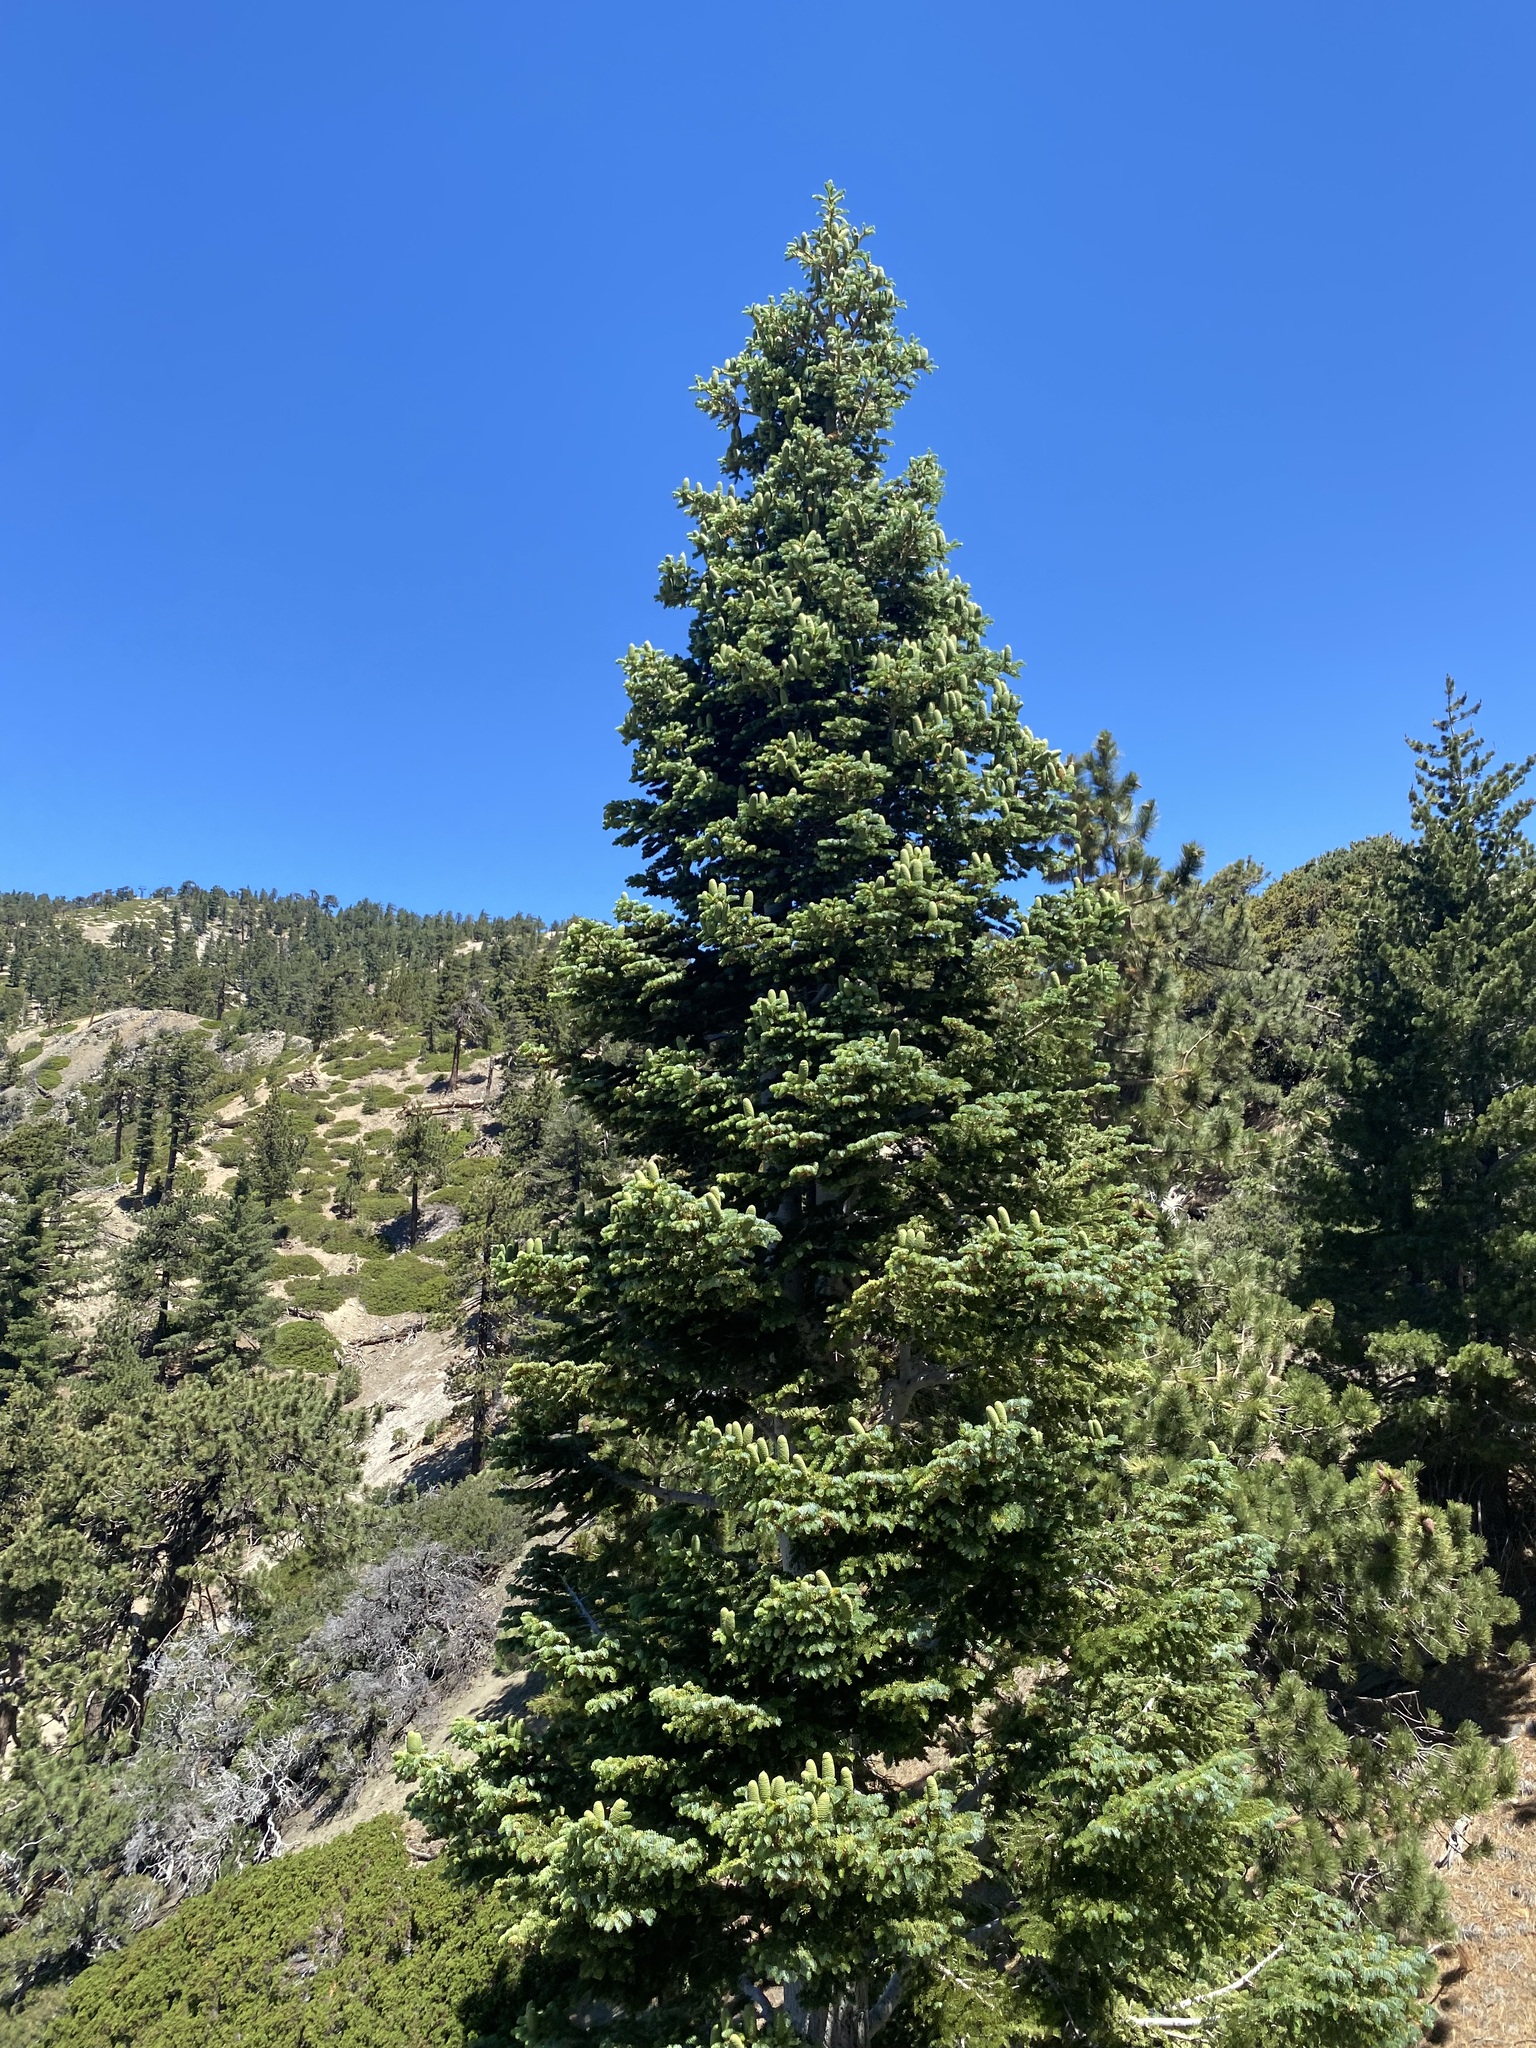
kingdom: Plantae
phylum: Tracheophyta
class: Pinopsida
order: Pinales
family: Pinaceae
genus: Abies
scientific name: Abies concolor
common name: Colorado fir
